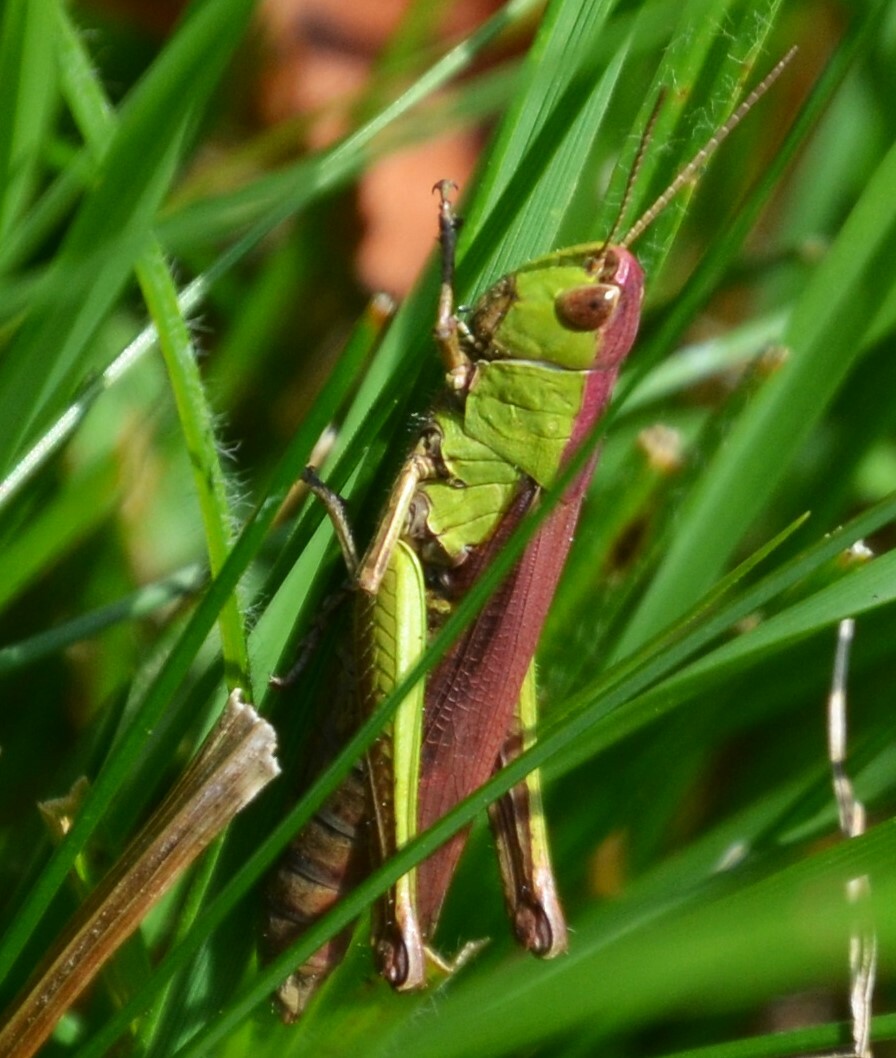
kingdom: Animalia
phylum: Arthropoda
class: Insecta
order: Orthoptera
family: Acrididae
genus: Chorthippus
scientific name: Chorthippus dorsatus
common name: Steppe grasshopper
